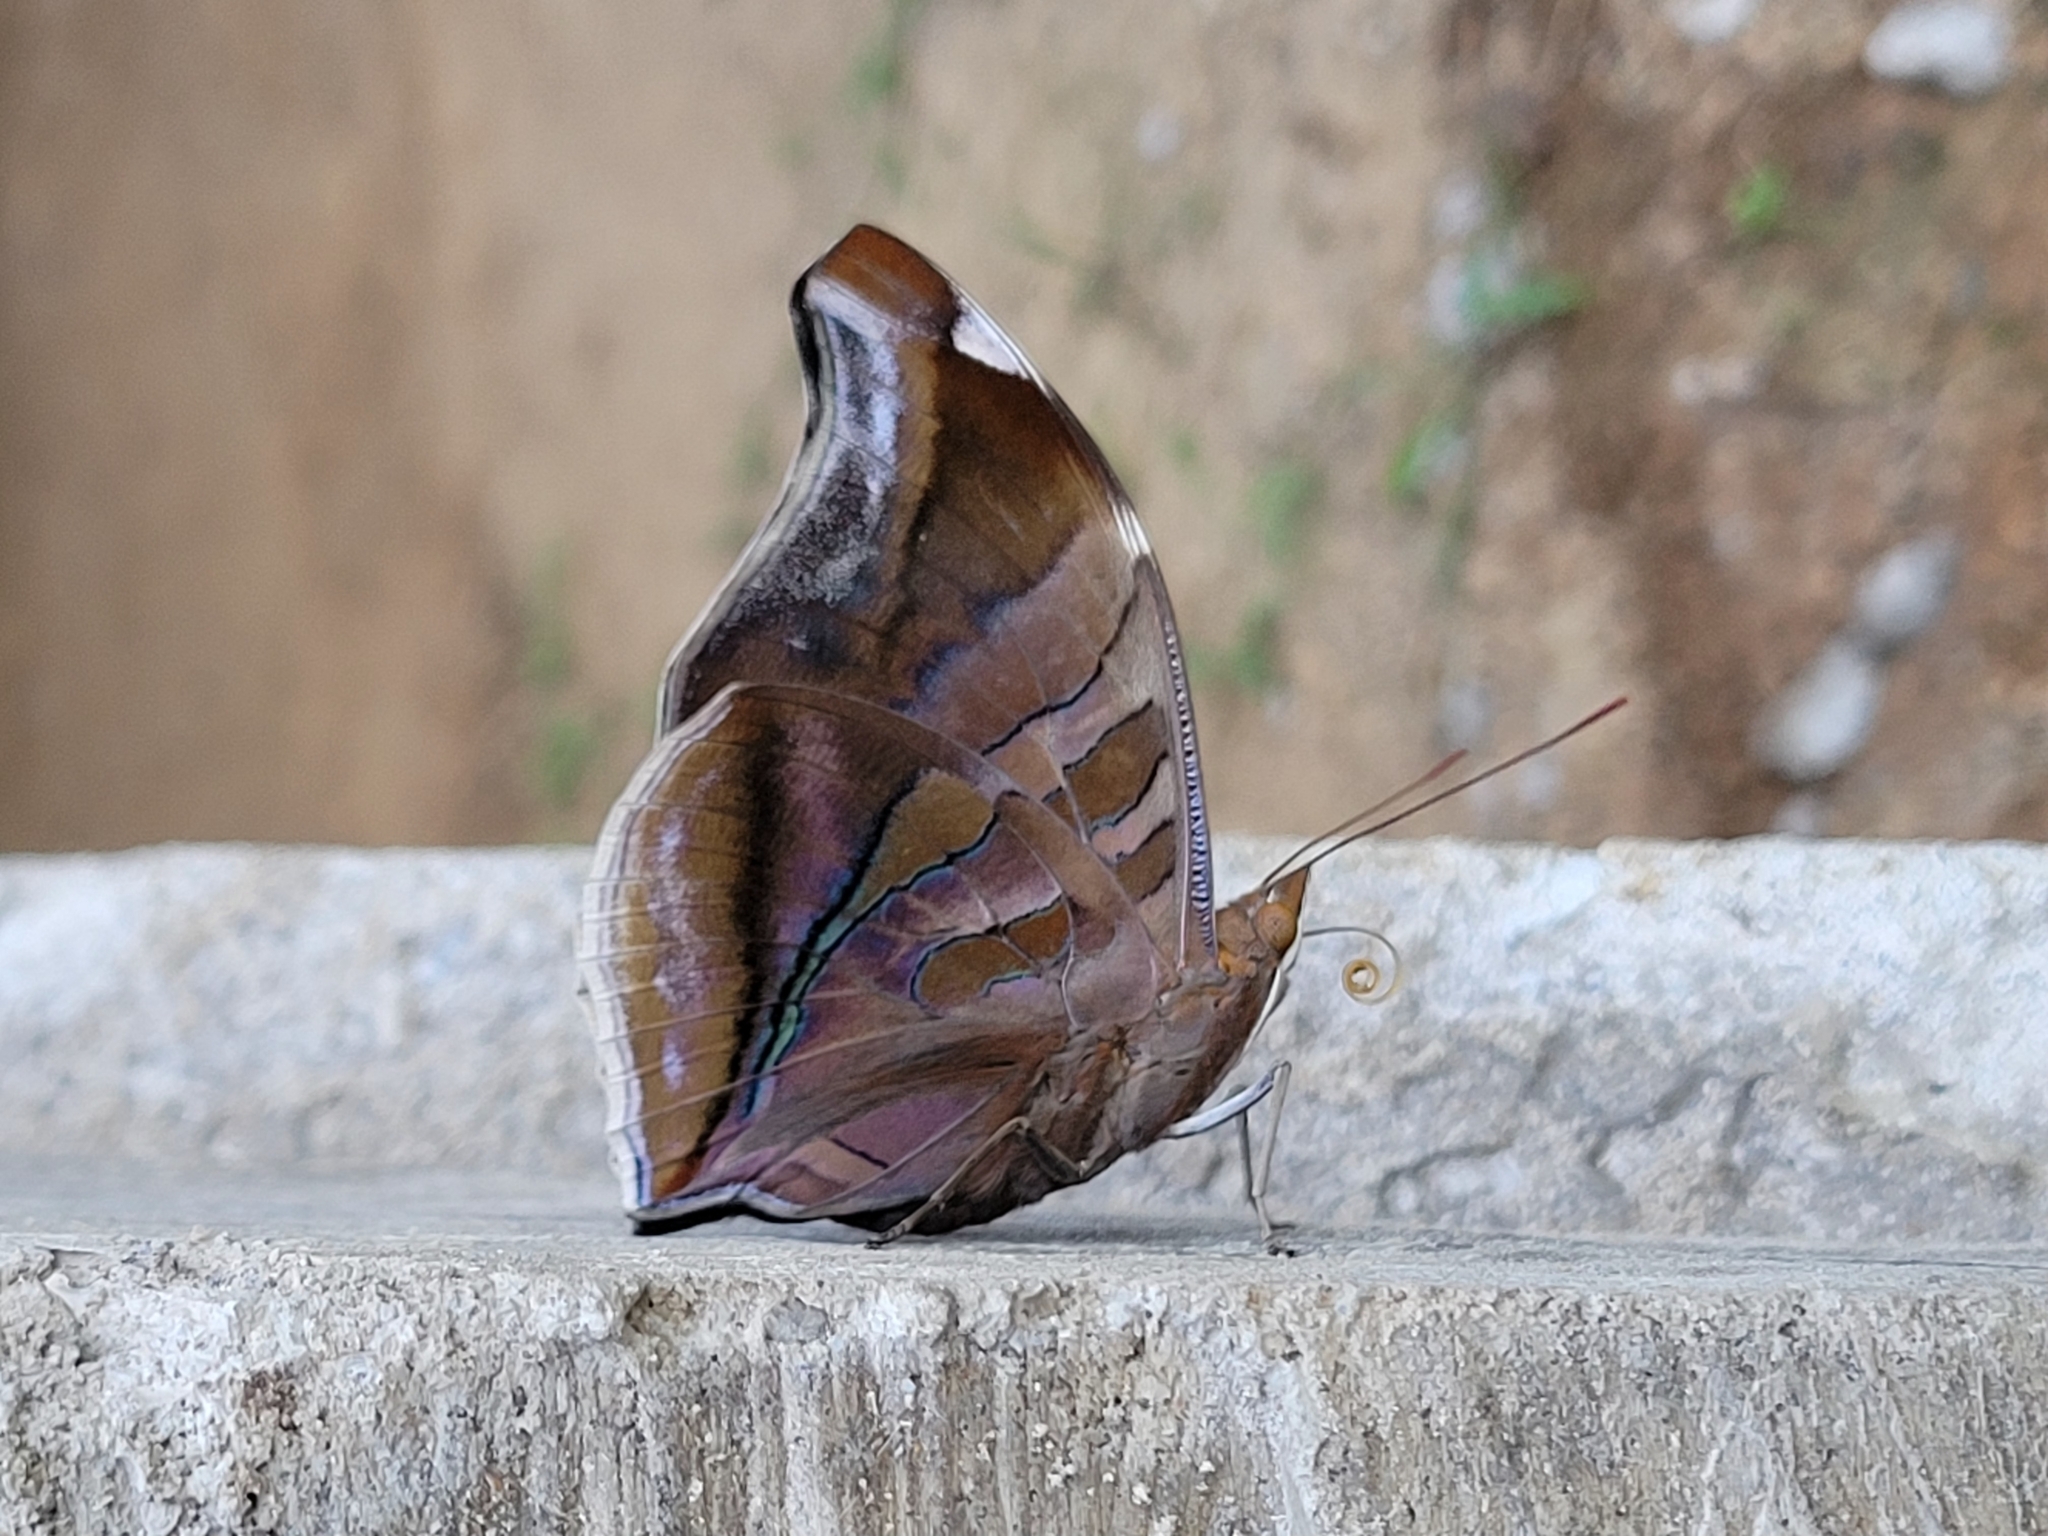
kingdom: Animalia
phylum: Arthropoda
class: Insecta
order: Lepidoptera
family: Nymphalidae
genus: Historis
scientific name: Historis odius
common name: Orion cecropian
